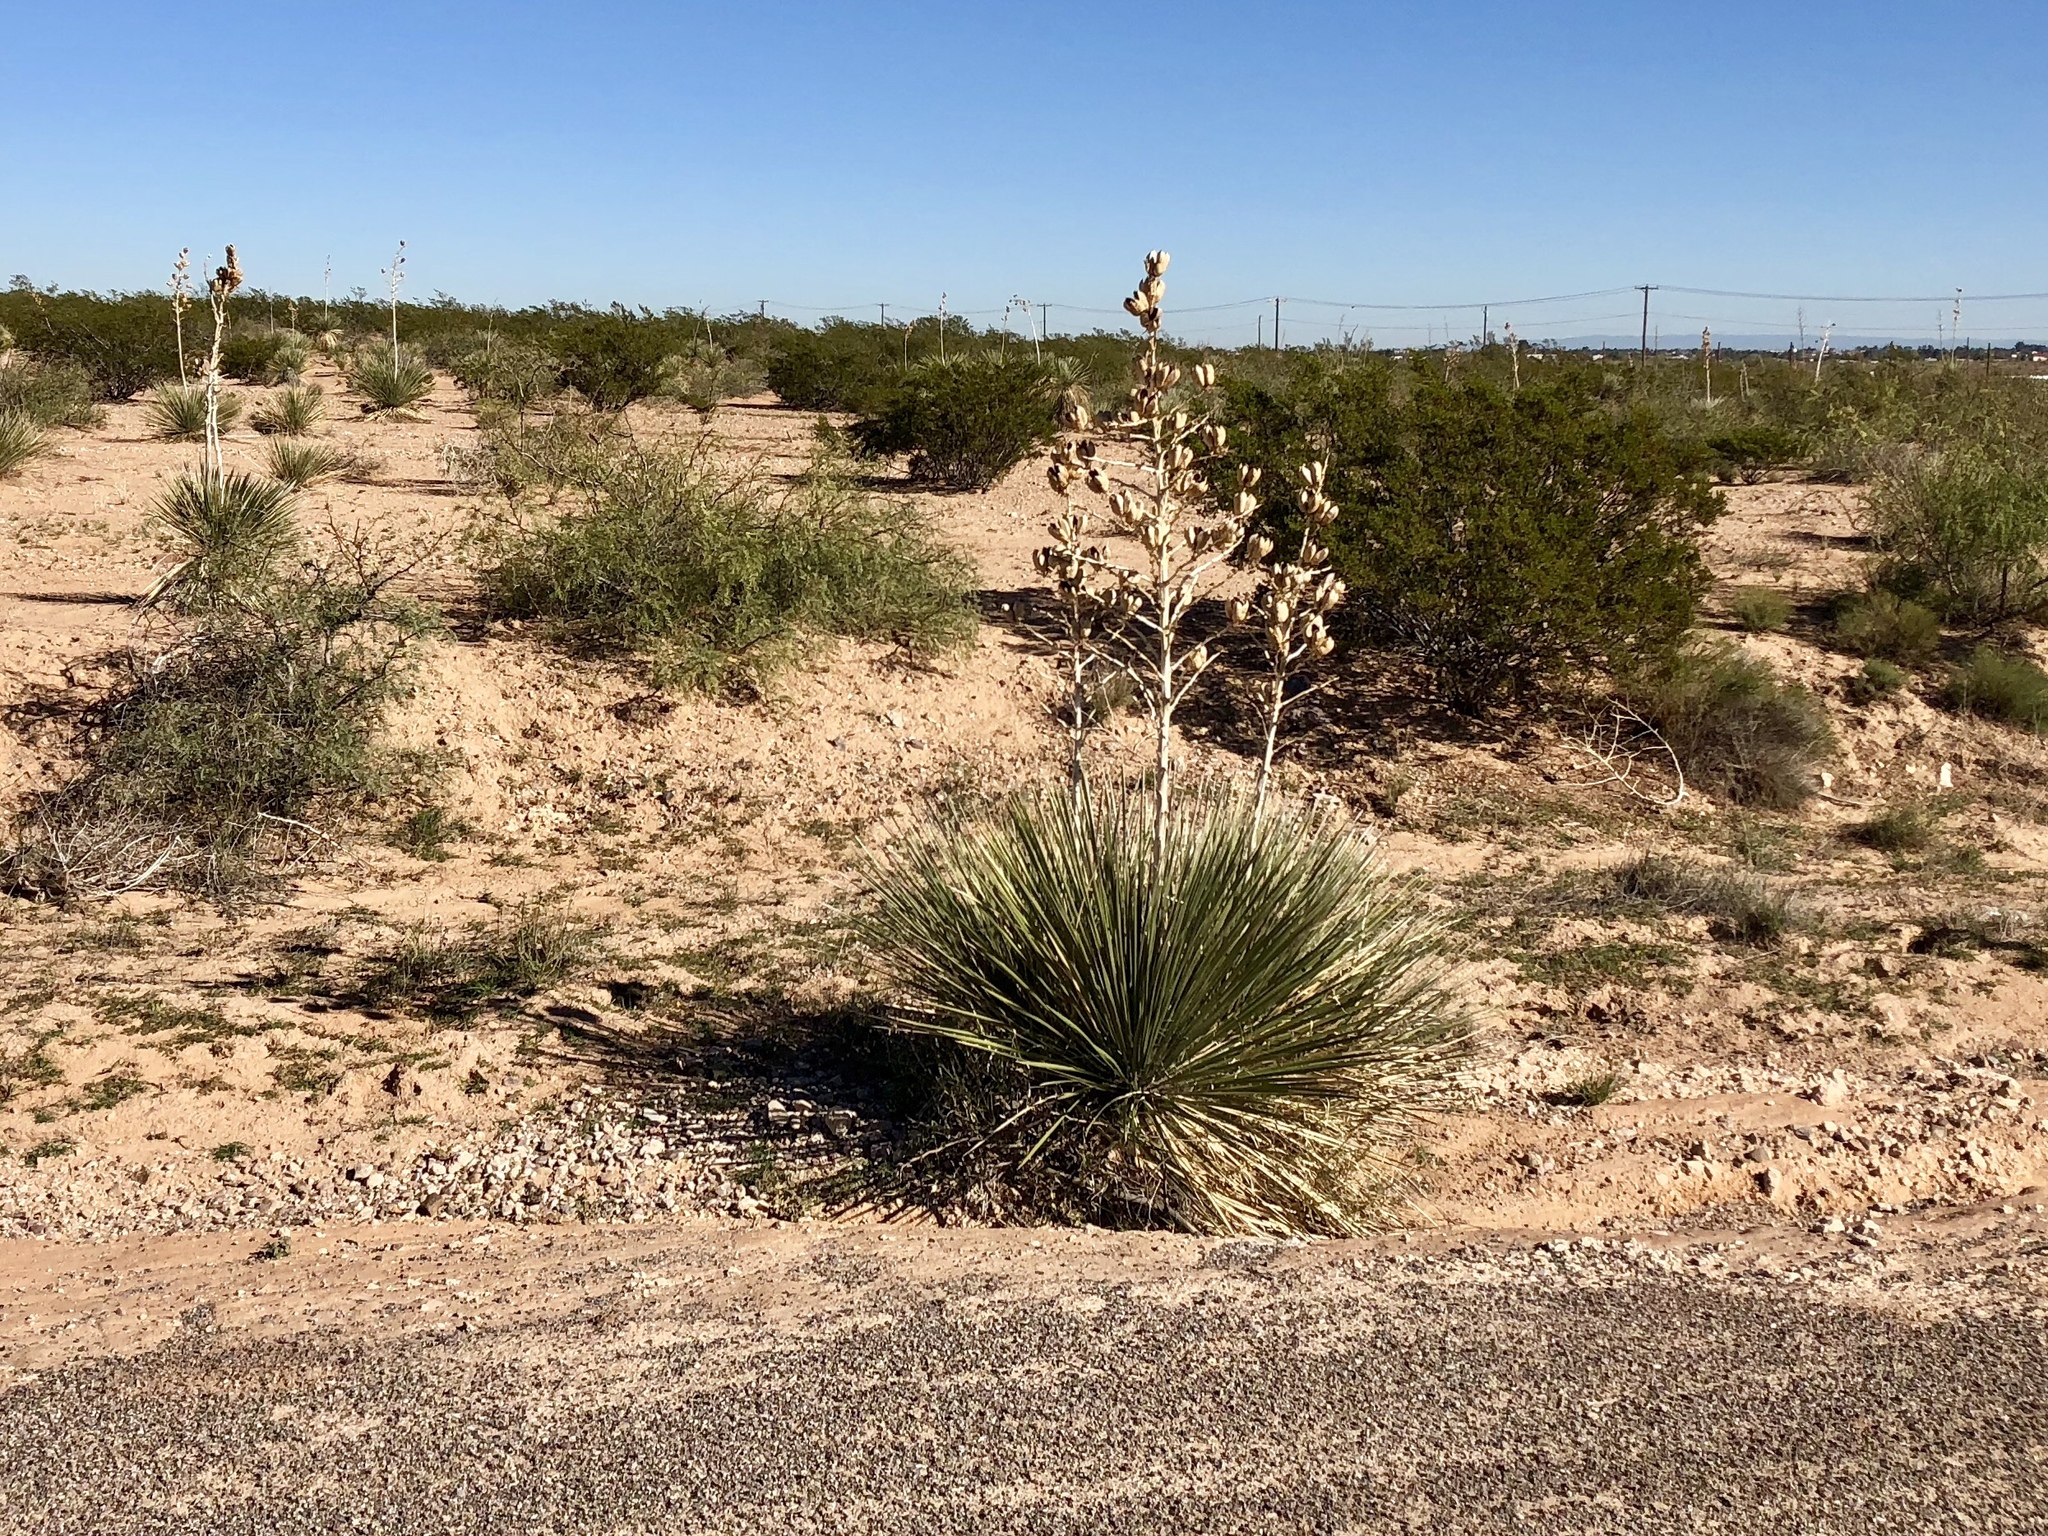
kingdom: Plantae
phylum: Tracheophyta
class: Liliopsida
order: Asparagales
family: Asparagaceae
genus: Yucca
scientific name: Yucca elata
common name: Palmella
